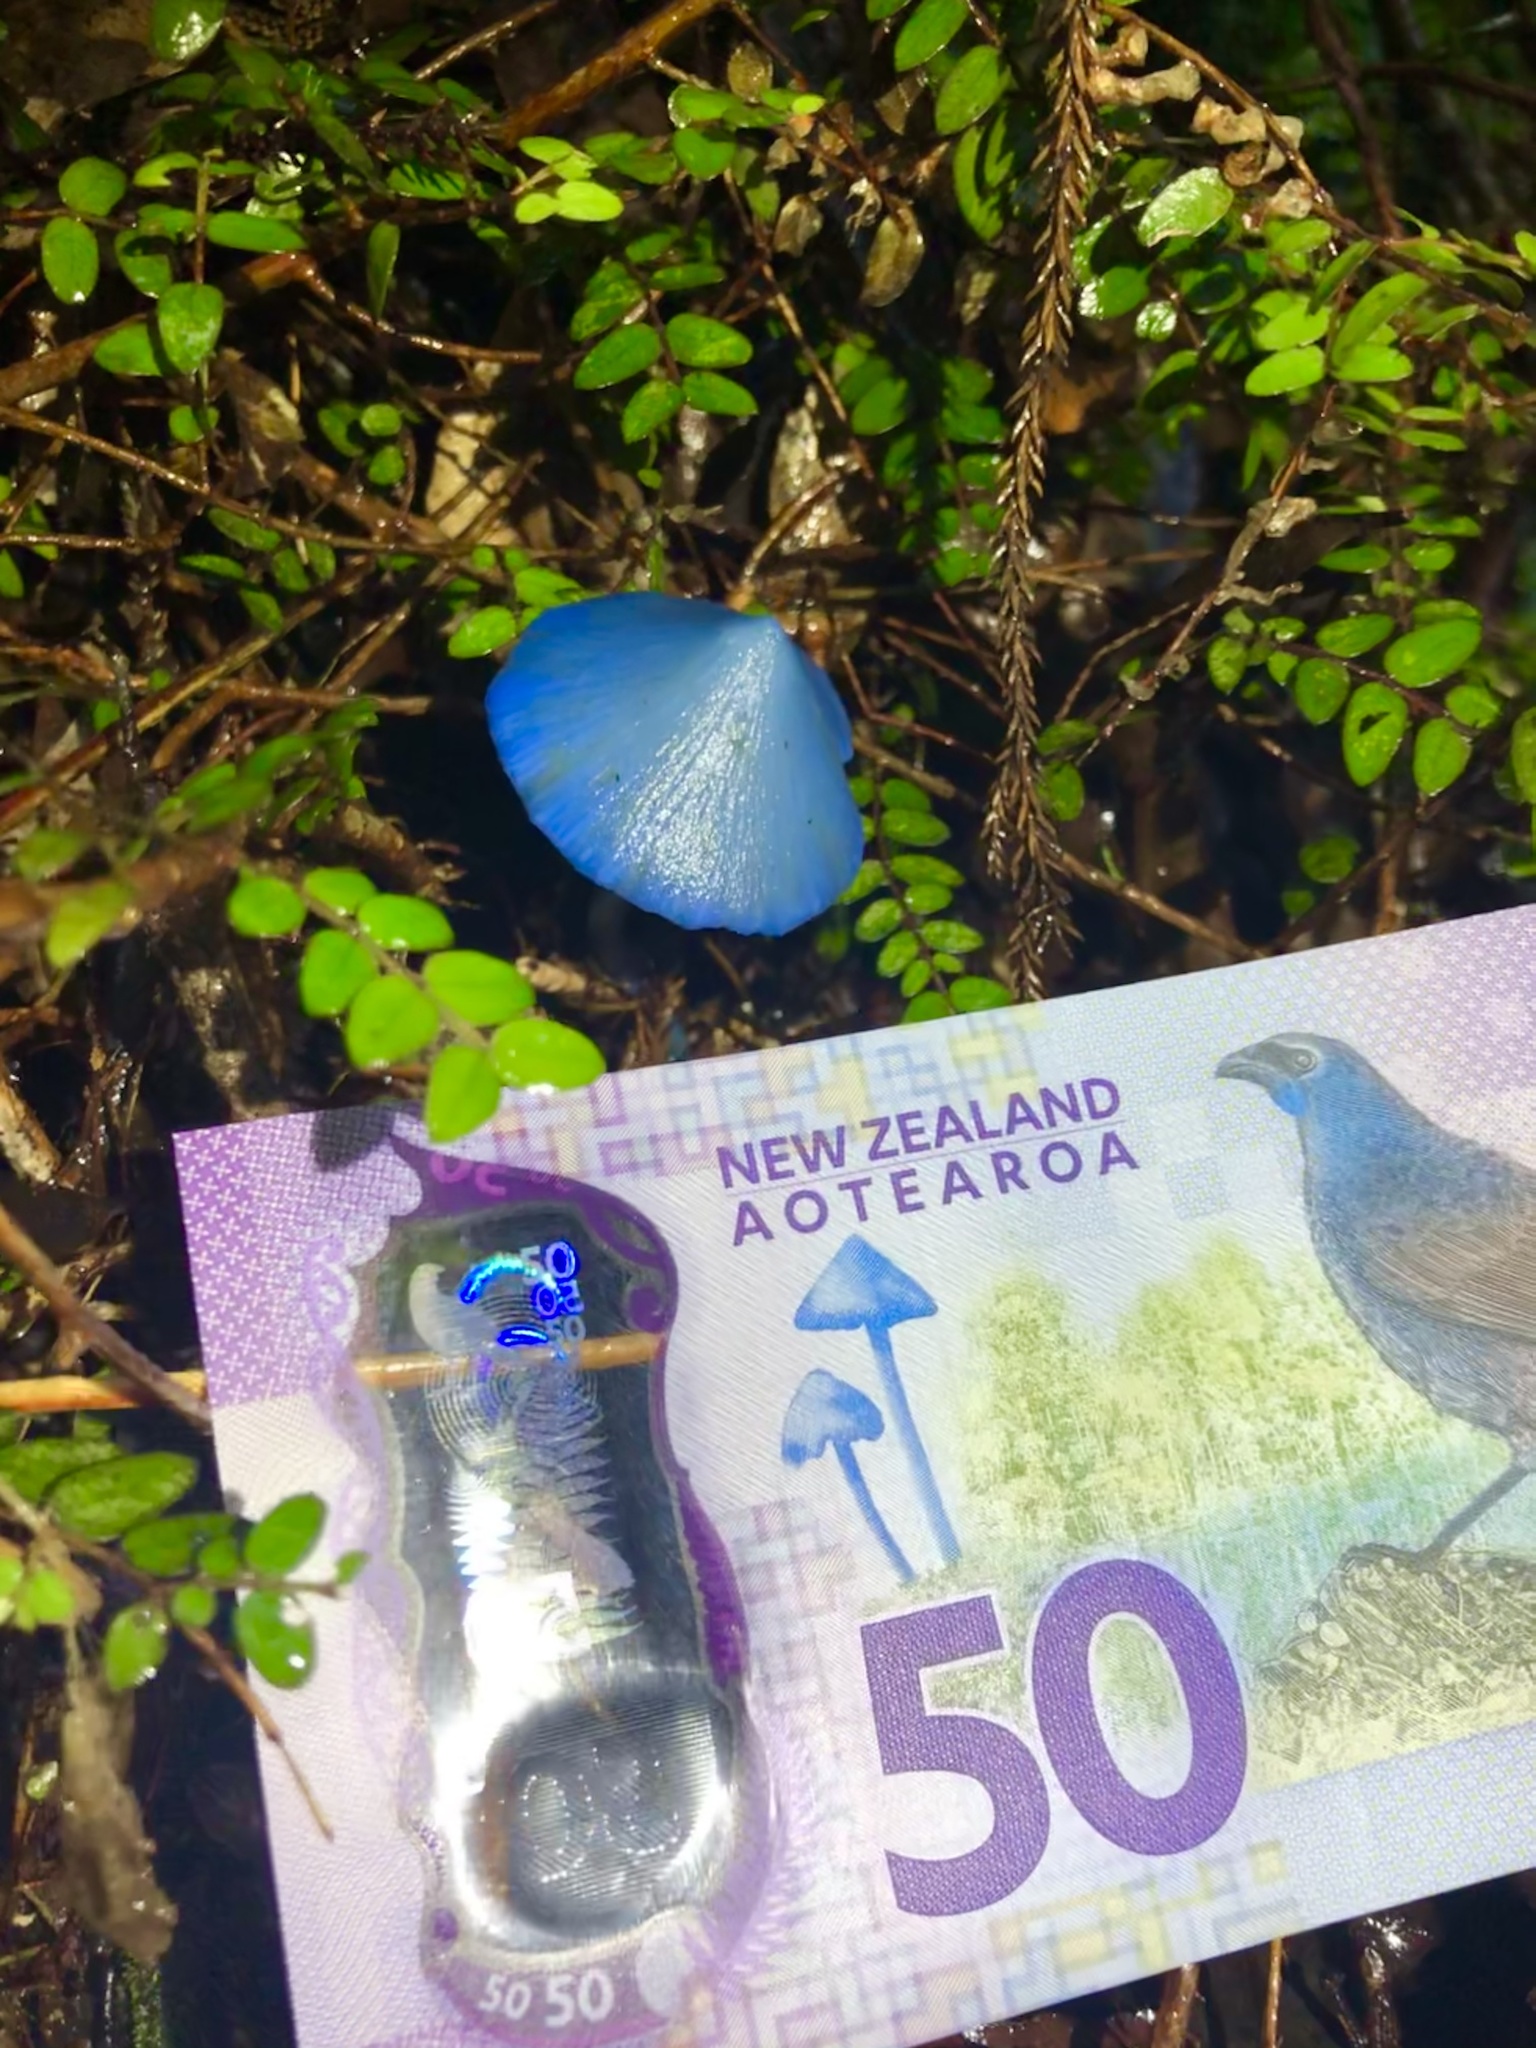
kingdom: Fungi
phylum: Basidiomycota
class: Agaricomycetes
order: Agaricales
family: Entolomataceae
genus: Entoloma
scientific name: Entoloma hochstetteri
